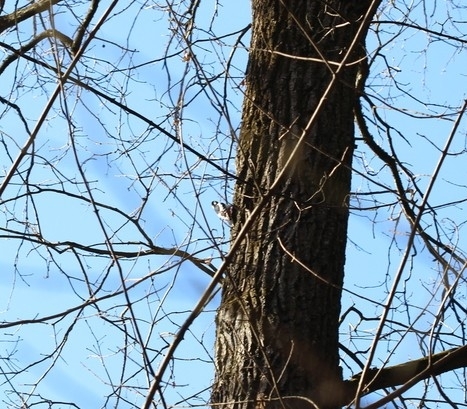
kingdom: Animalia
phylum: Chordata
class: Aves
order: Piciformes
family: Picidae
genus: Dendrocopos
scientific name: Dendrocopos major
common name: Great spotted woodpecker
